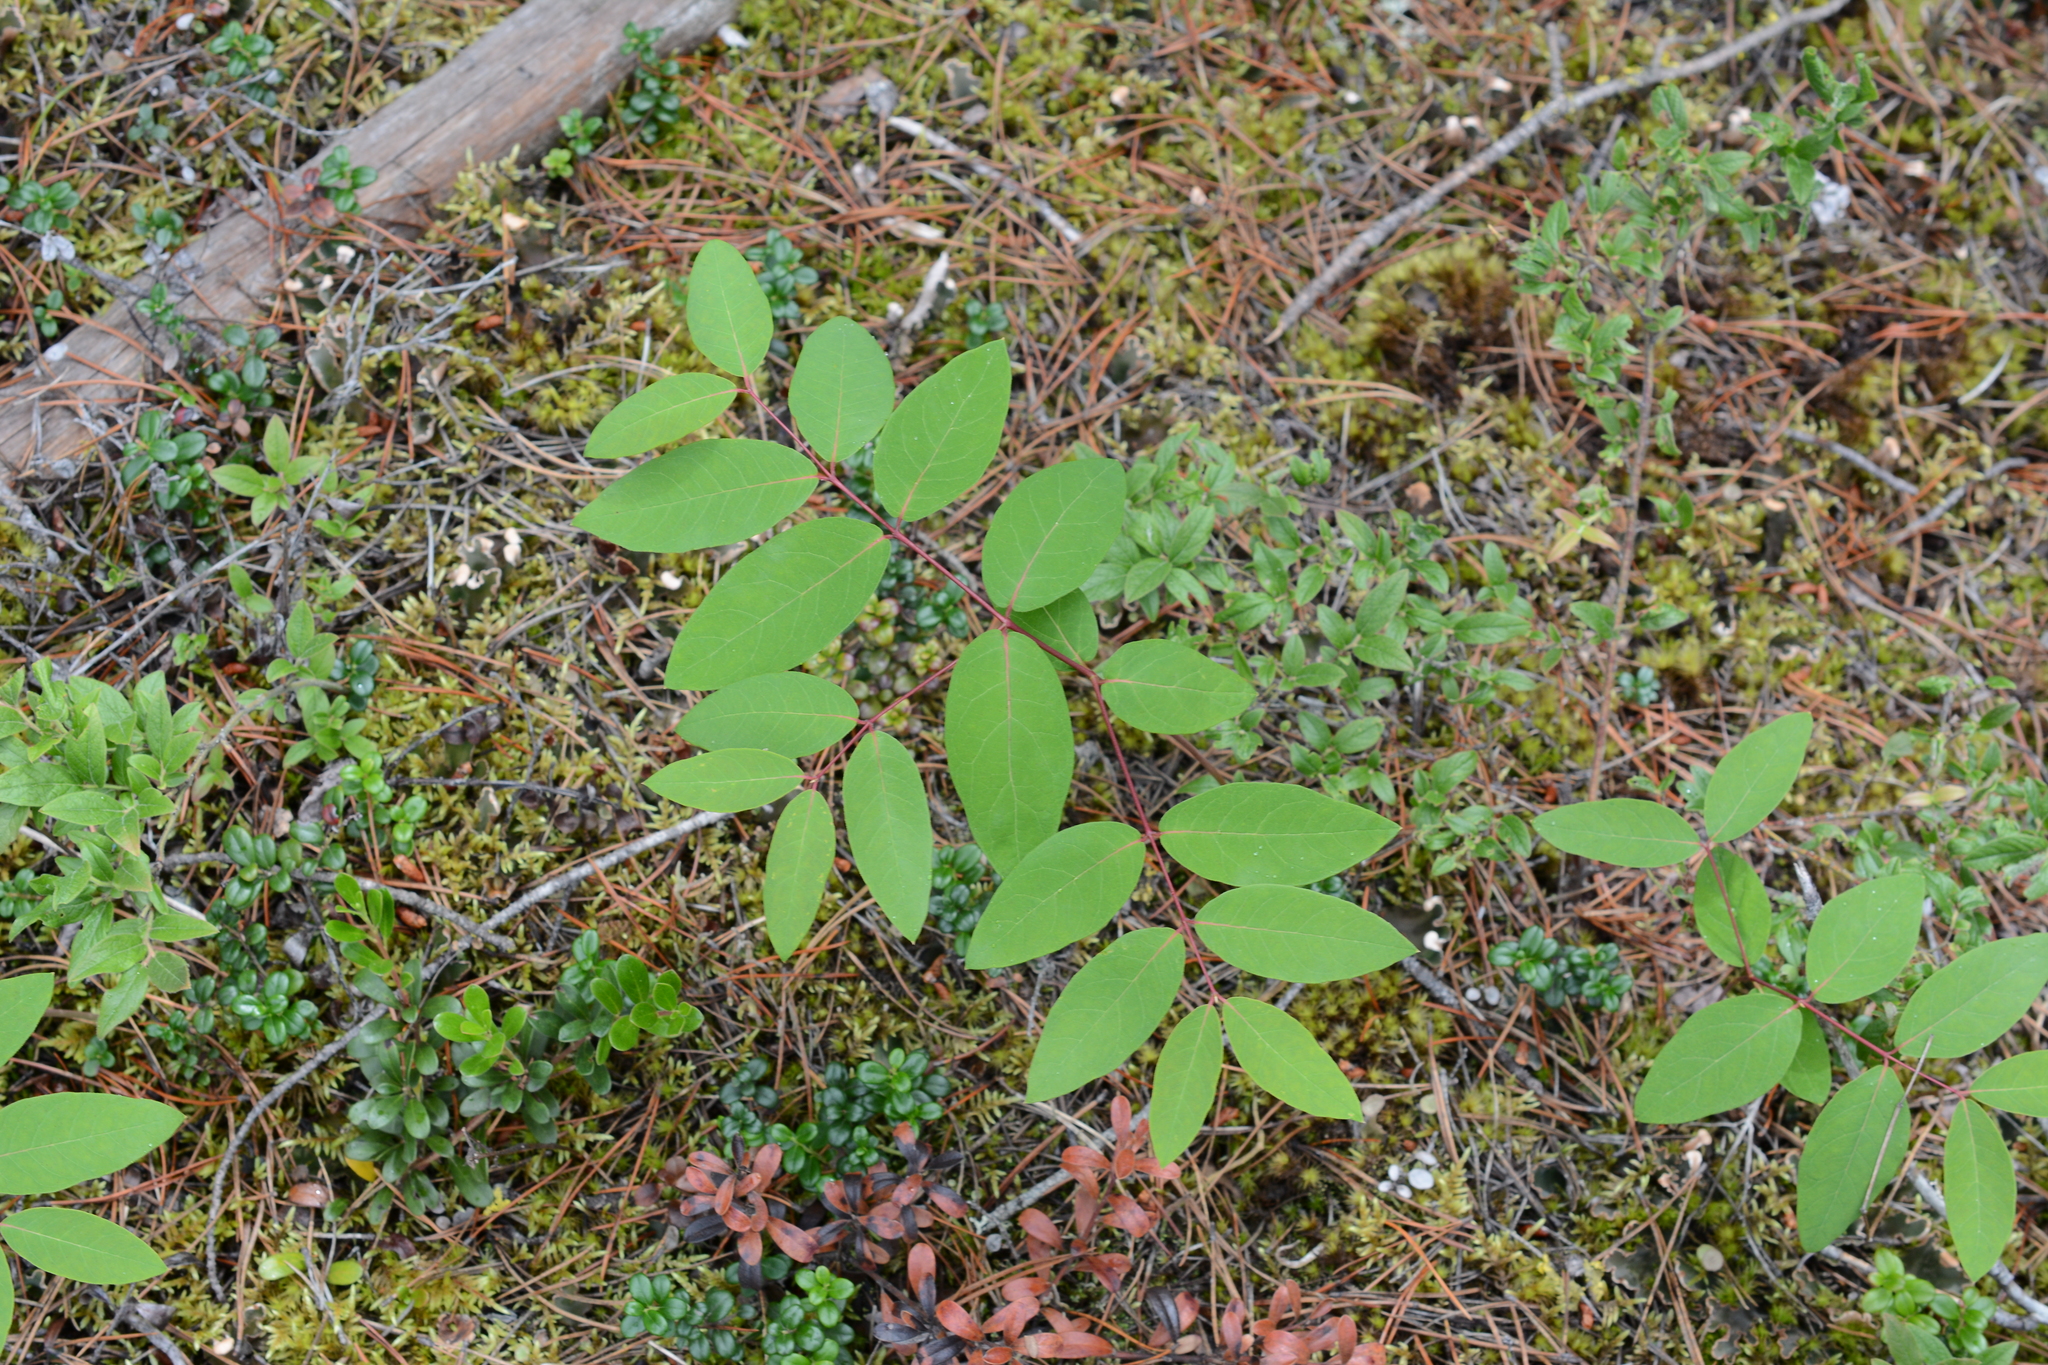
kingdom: Plantae
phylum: Tracheophyta
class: Magnoliopsida
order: Gentianales
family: Apocynaceae
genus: Apocynum
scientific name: Apocynum androsaemifolium
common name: Spreading dogbane
